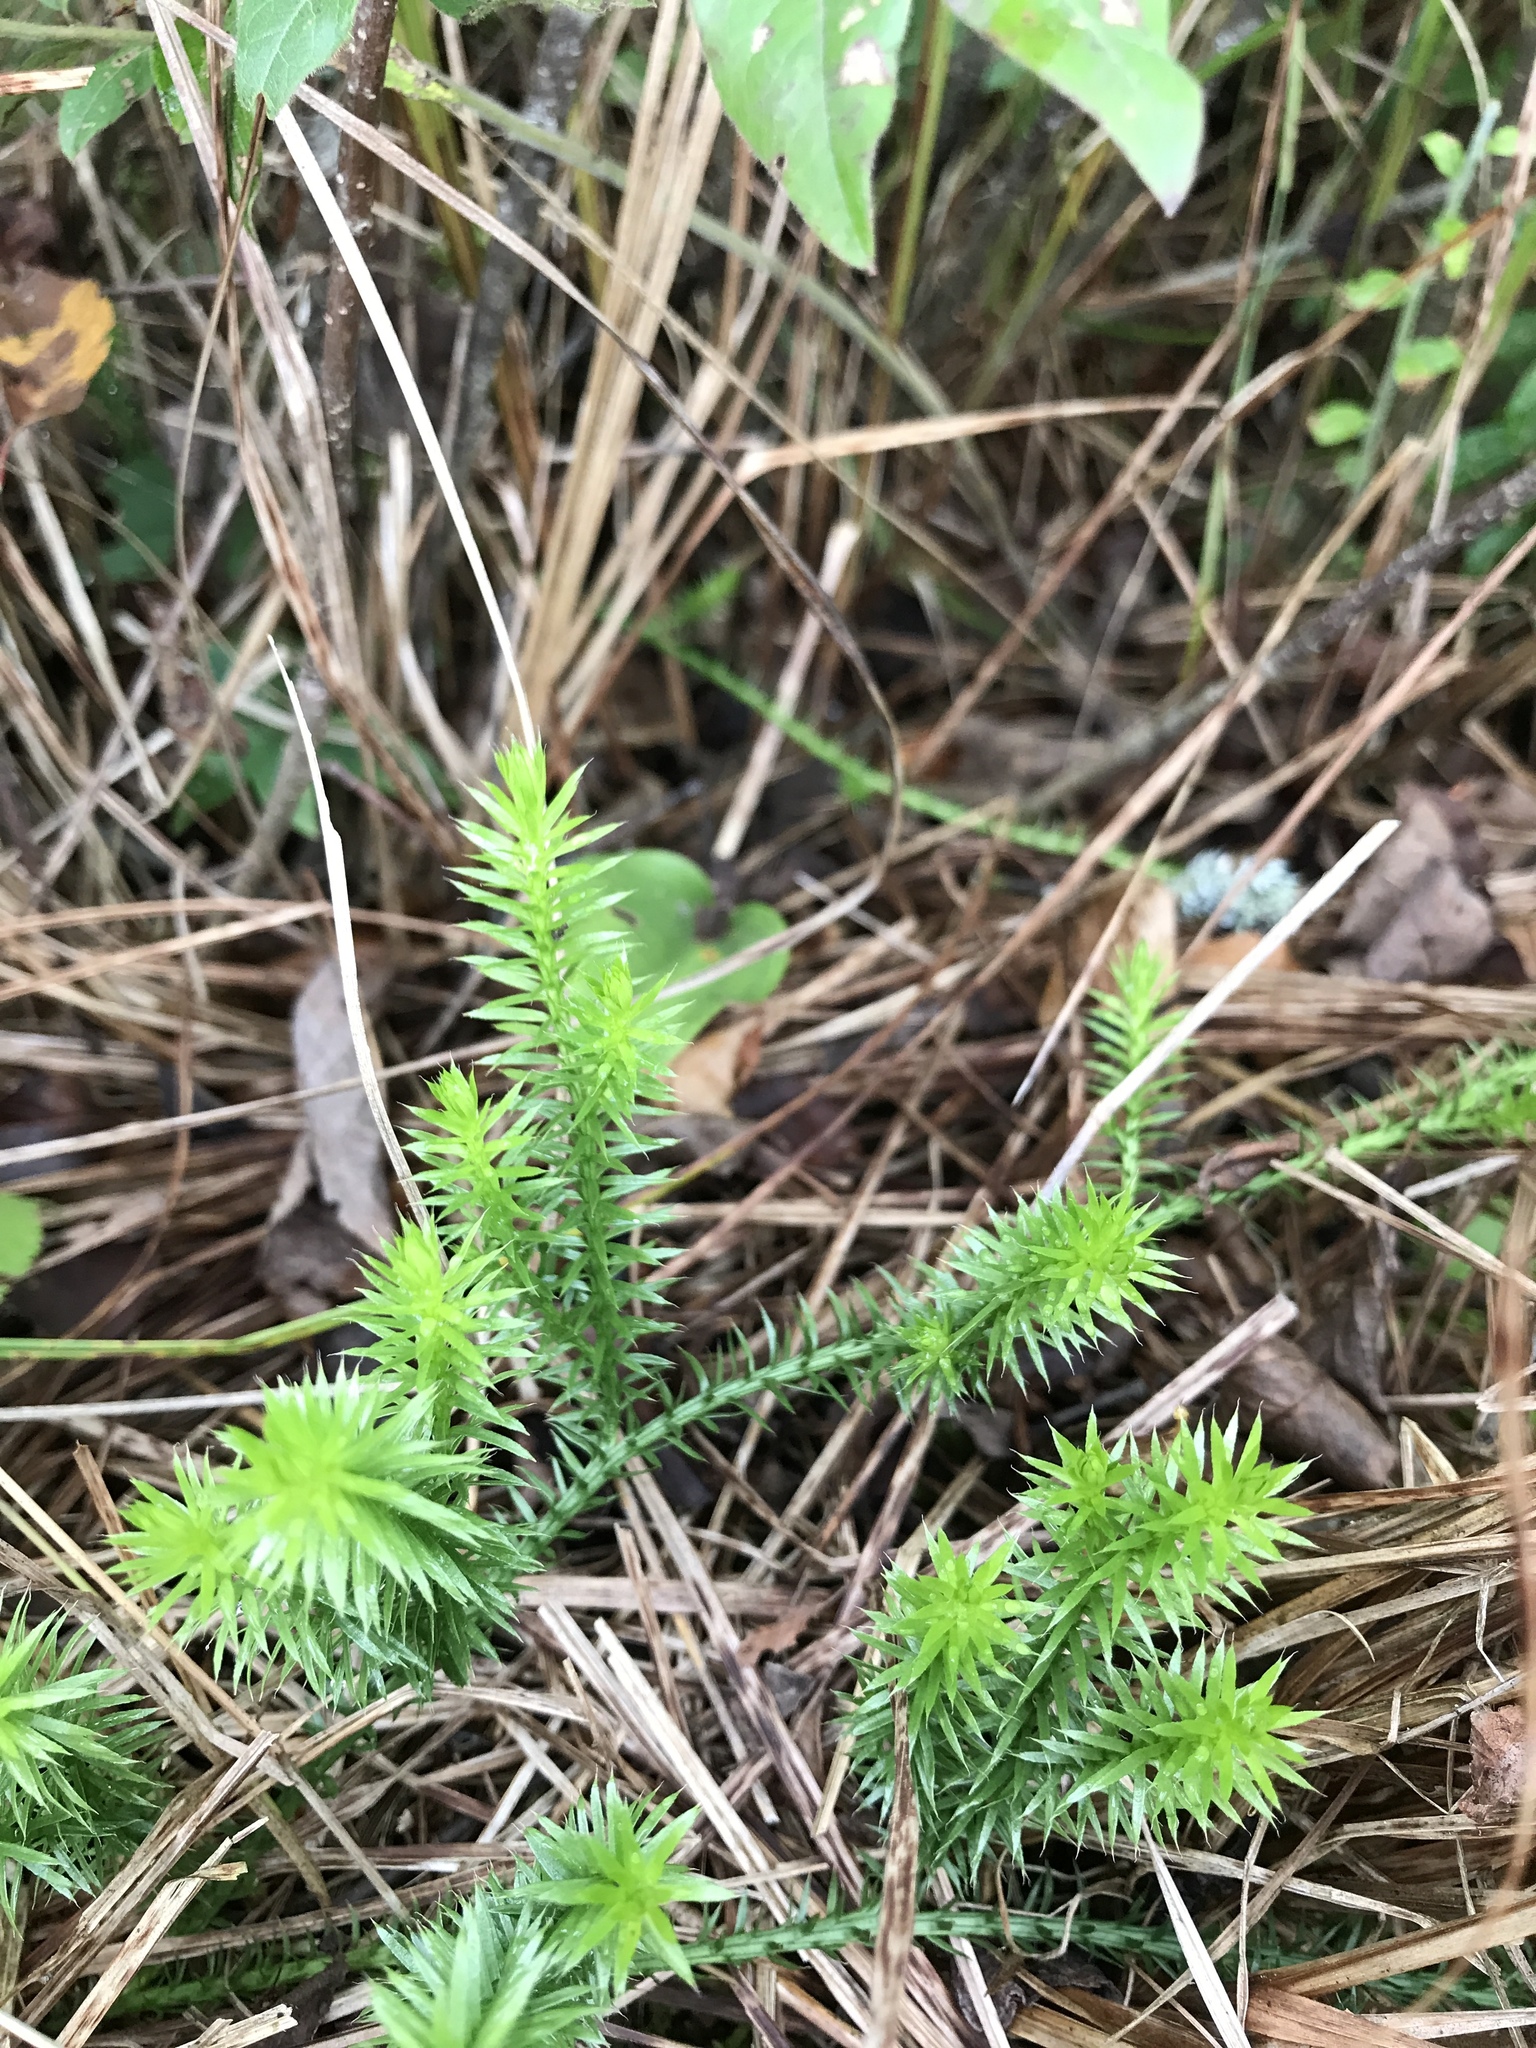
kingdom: Plantae
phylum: Tracheophyta
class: Lycopodiopsida
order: Lycopodiales
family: Lycopodiaceae
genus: Spinulum
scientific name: Spinulum annotinum
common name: Interrupted club-moss
